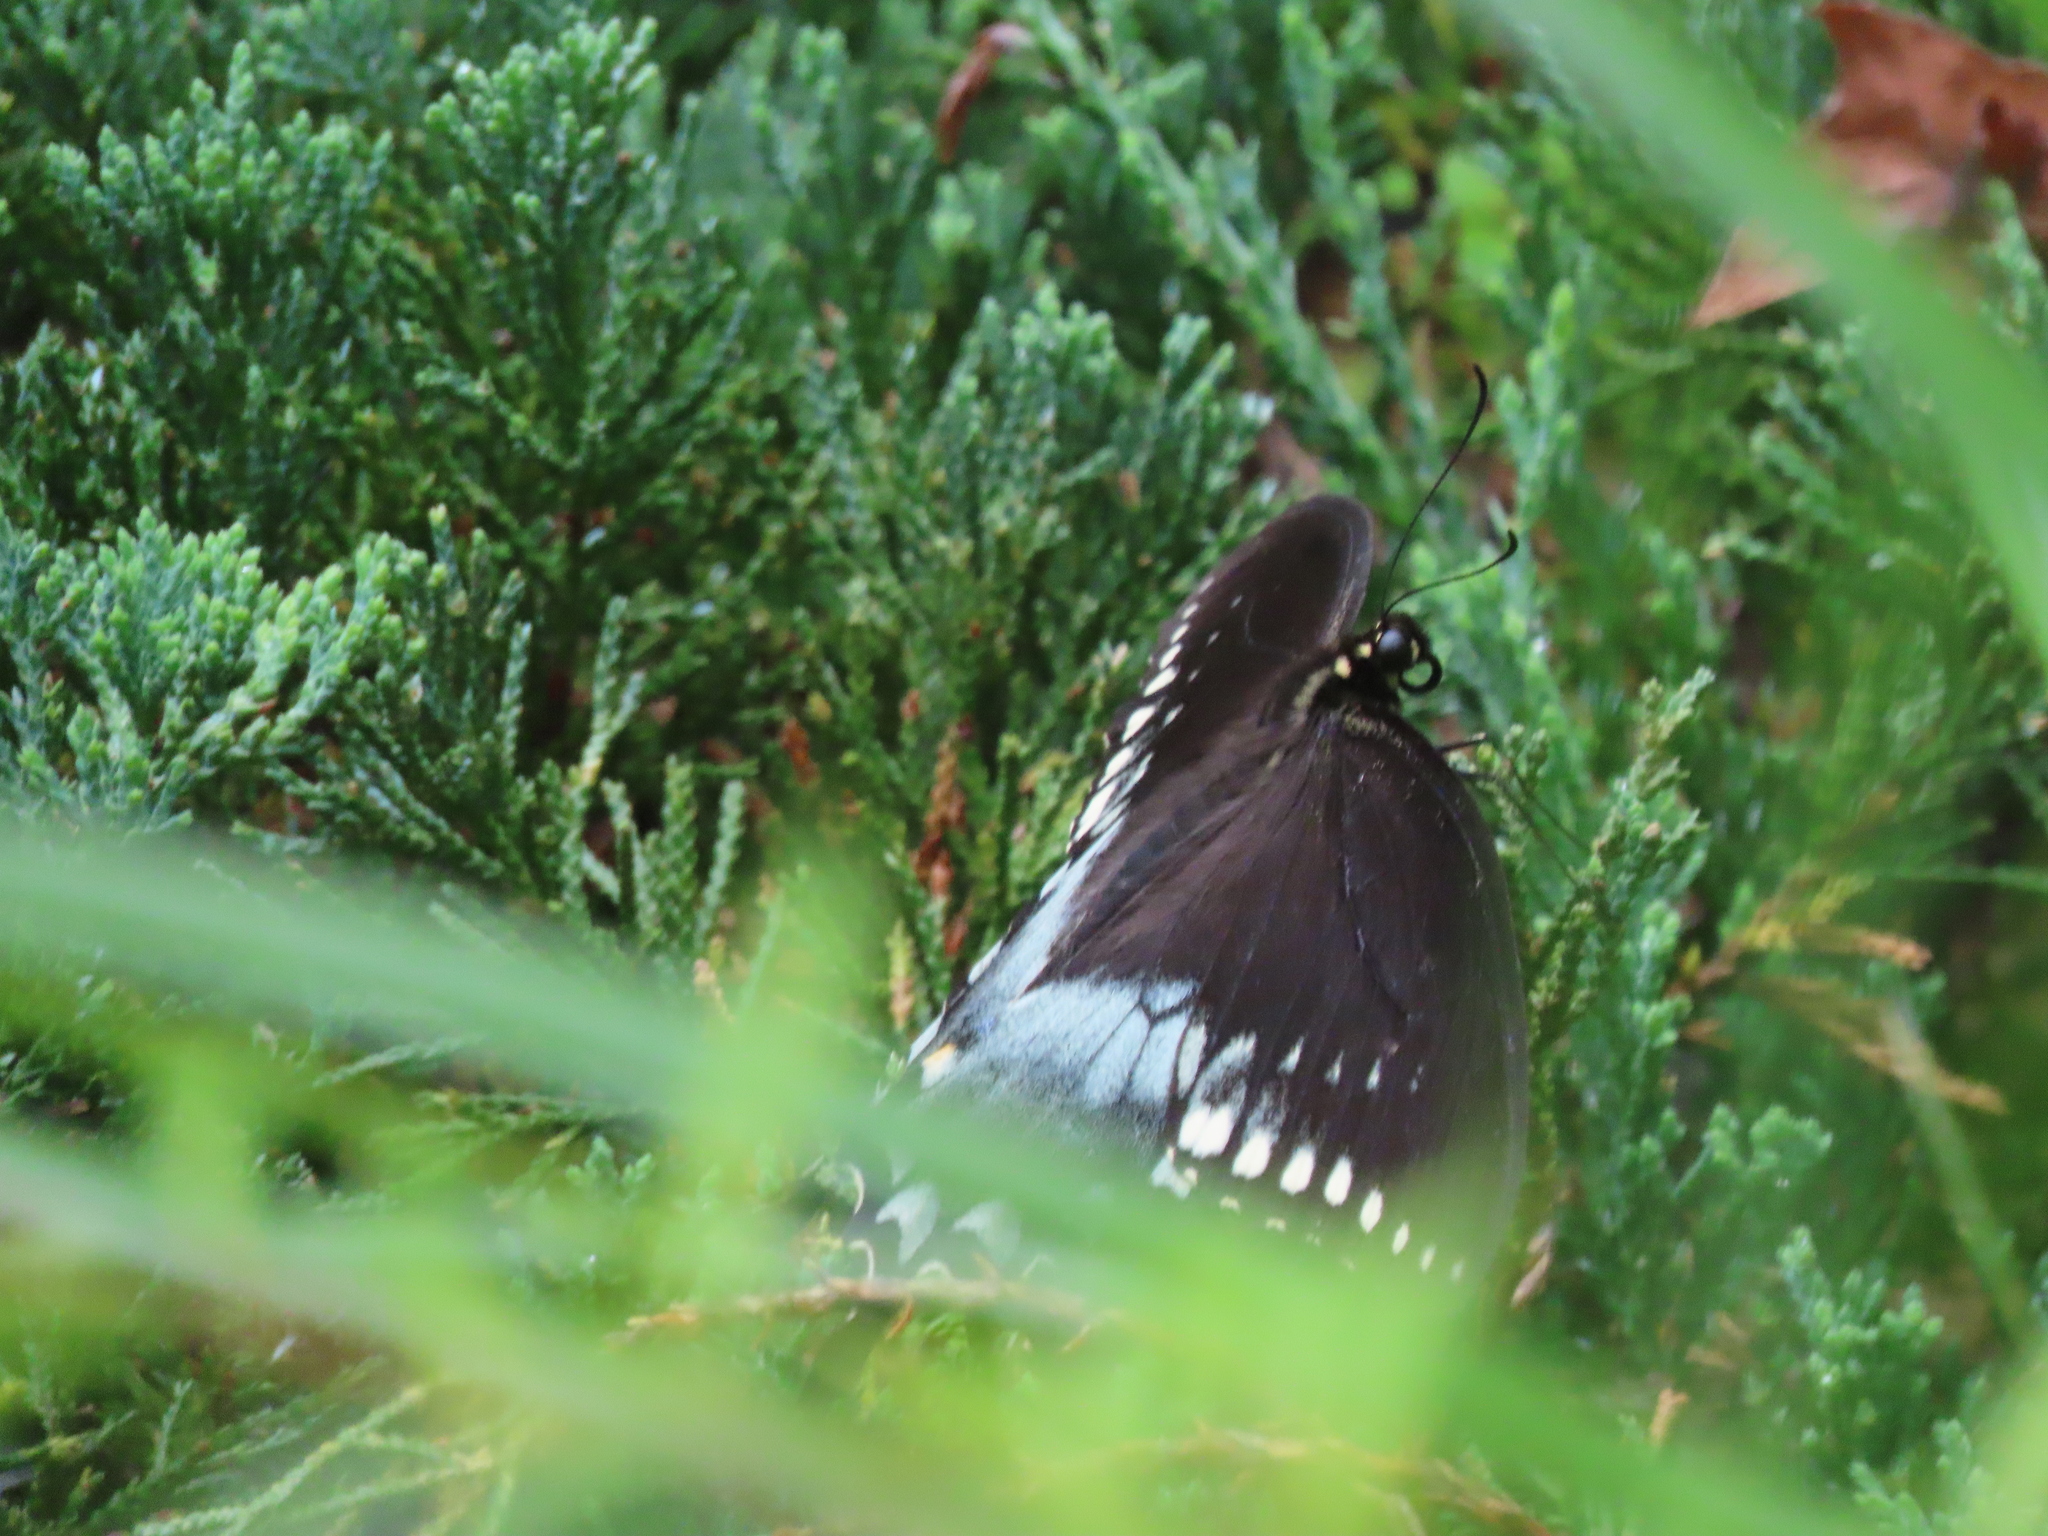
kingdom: Animalia
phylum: Arthropoda
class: Insecta
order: Lepidoptera
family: Papilionidae
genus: Papilio
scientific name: Papilio troilus
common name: Spicebush swallowtail
